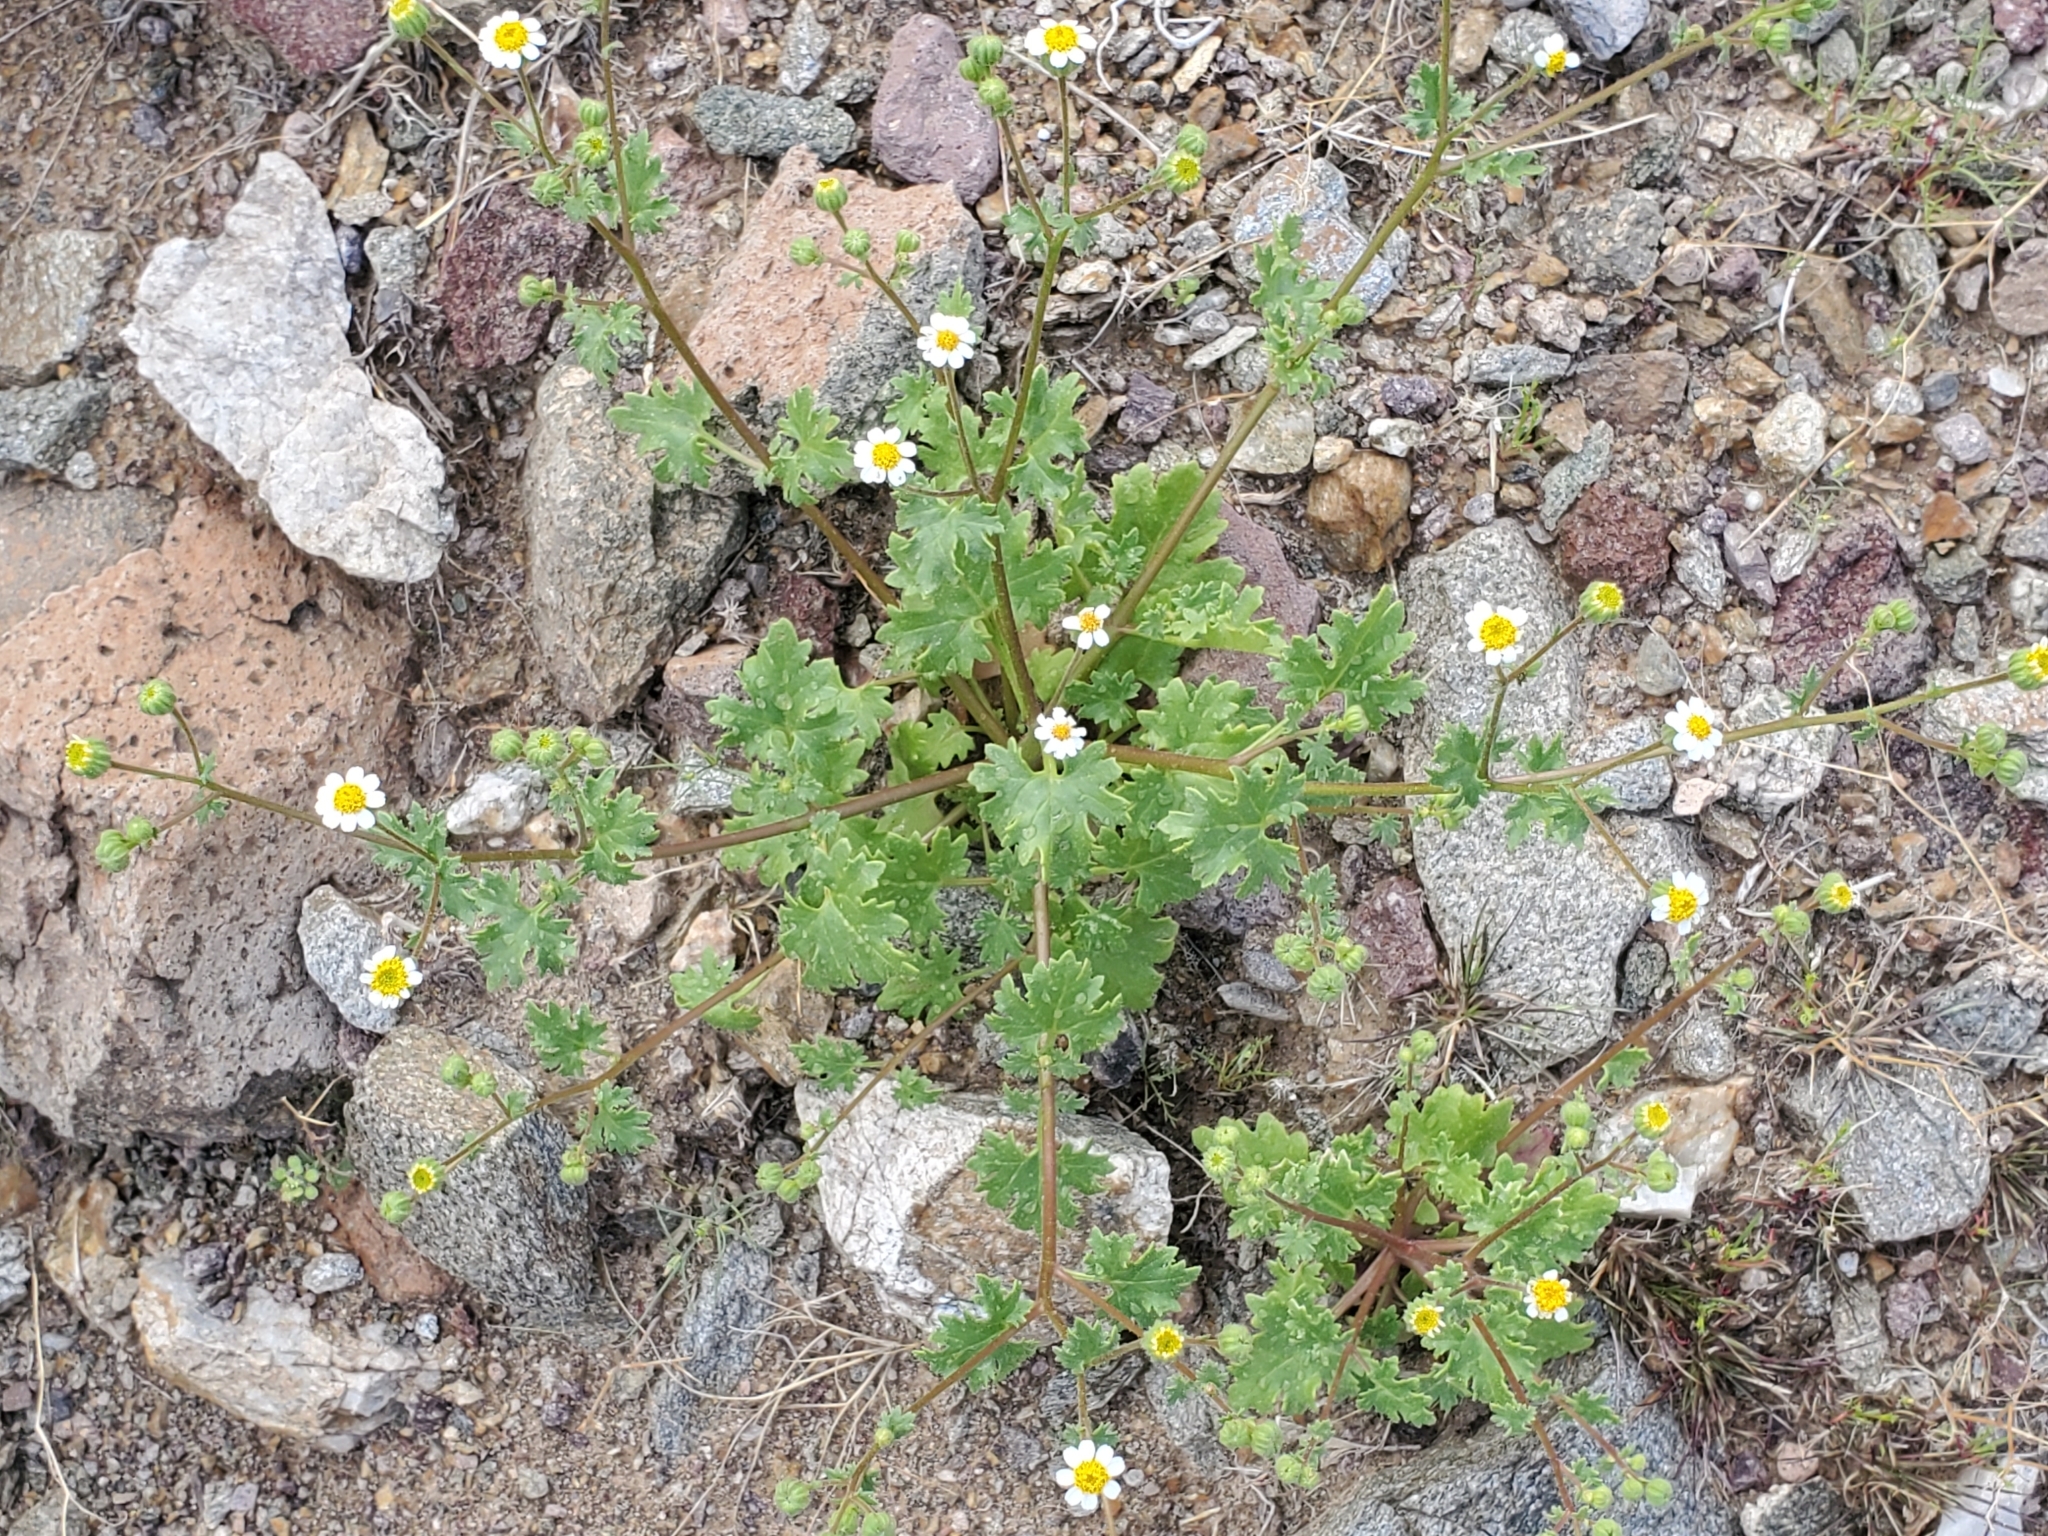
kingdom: Plantae
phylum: Tracheophyta
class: Magnoliopsida
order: Asterales
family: Asteraceae
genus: Laphamia
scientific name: Laphamia emoryi
